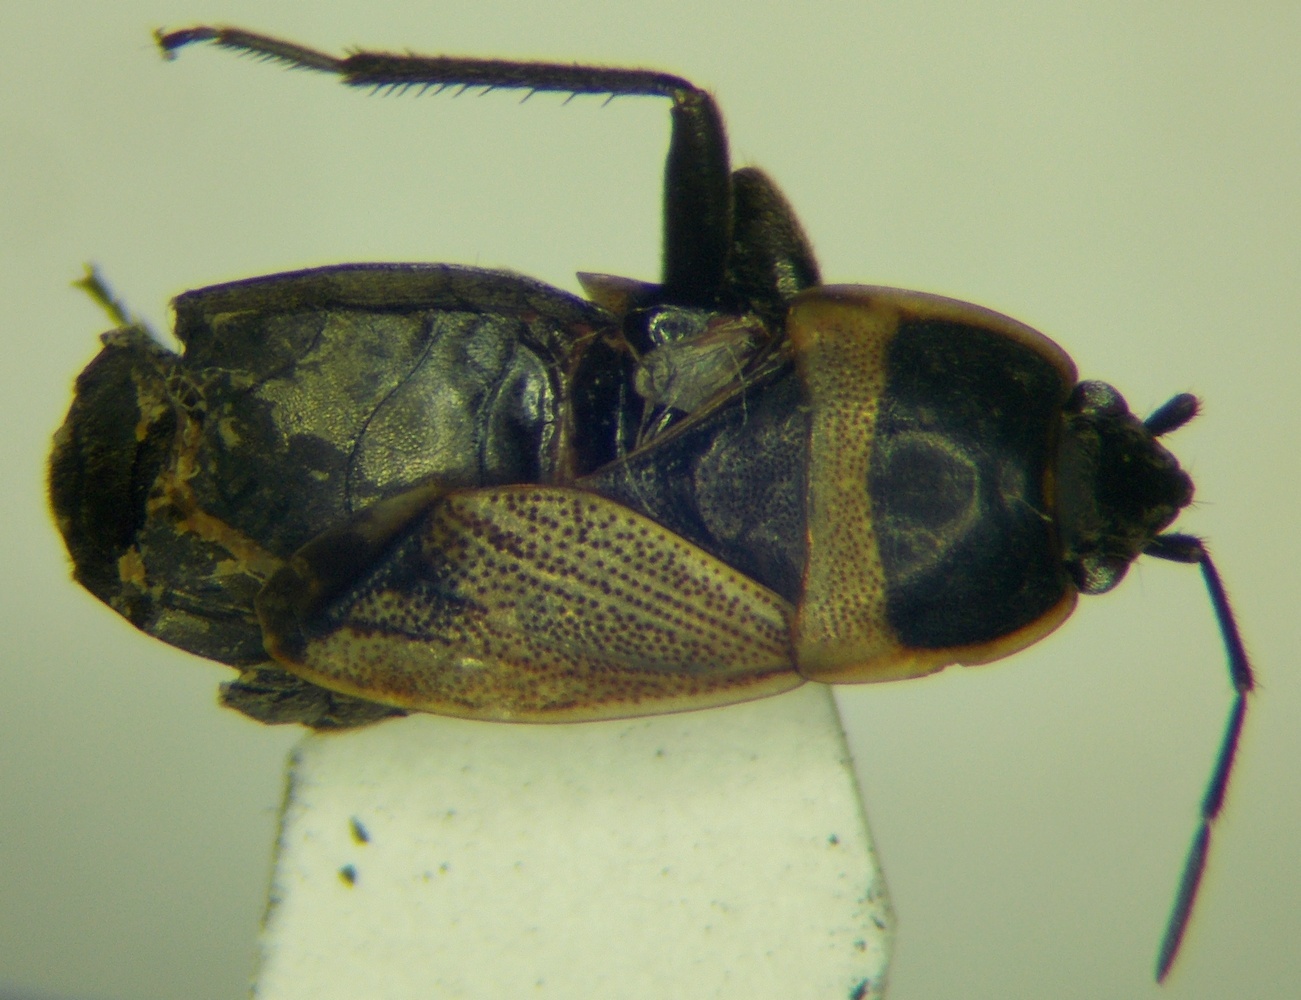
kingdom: Animalia
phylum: Arthropoda
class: Insecta
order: Hemiptera
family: Rhyparochromidae
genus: Bleteogonus
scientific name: Bleteogonus beckeri
